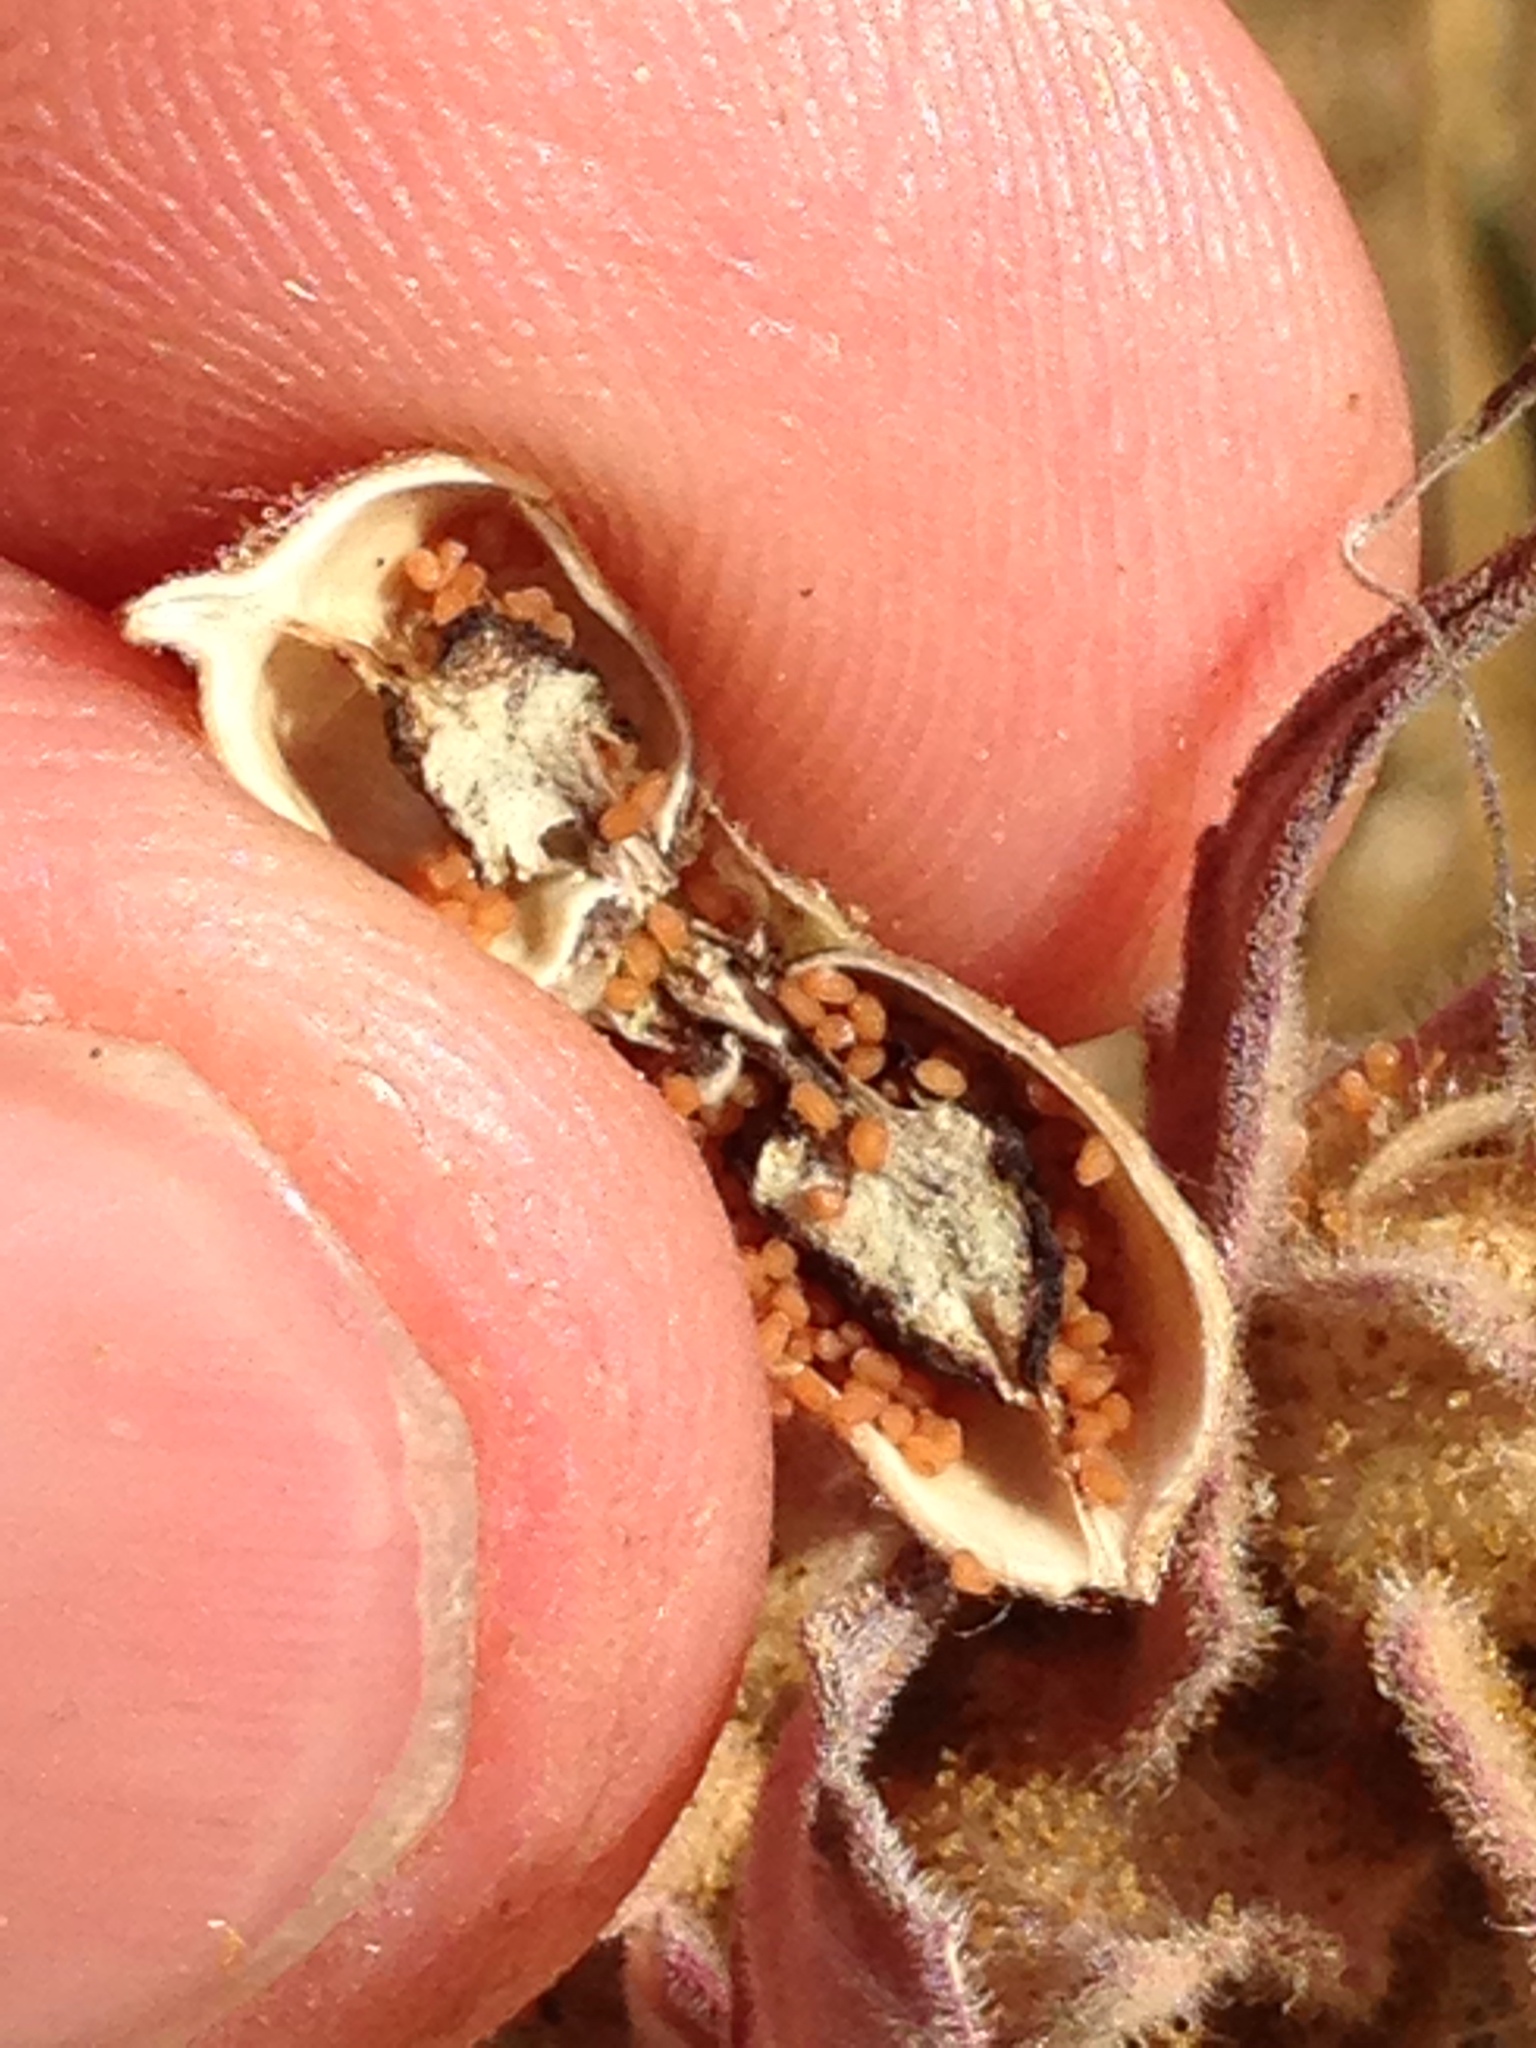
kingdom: Plantae
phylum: Tracheophyta
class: Magnoliopsida
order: Lamiales
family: Orobanchaceae
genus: Bellardia
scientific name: Bellardia trixago
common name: Mediterranean lineseed
